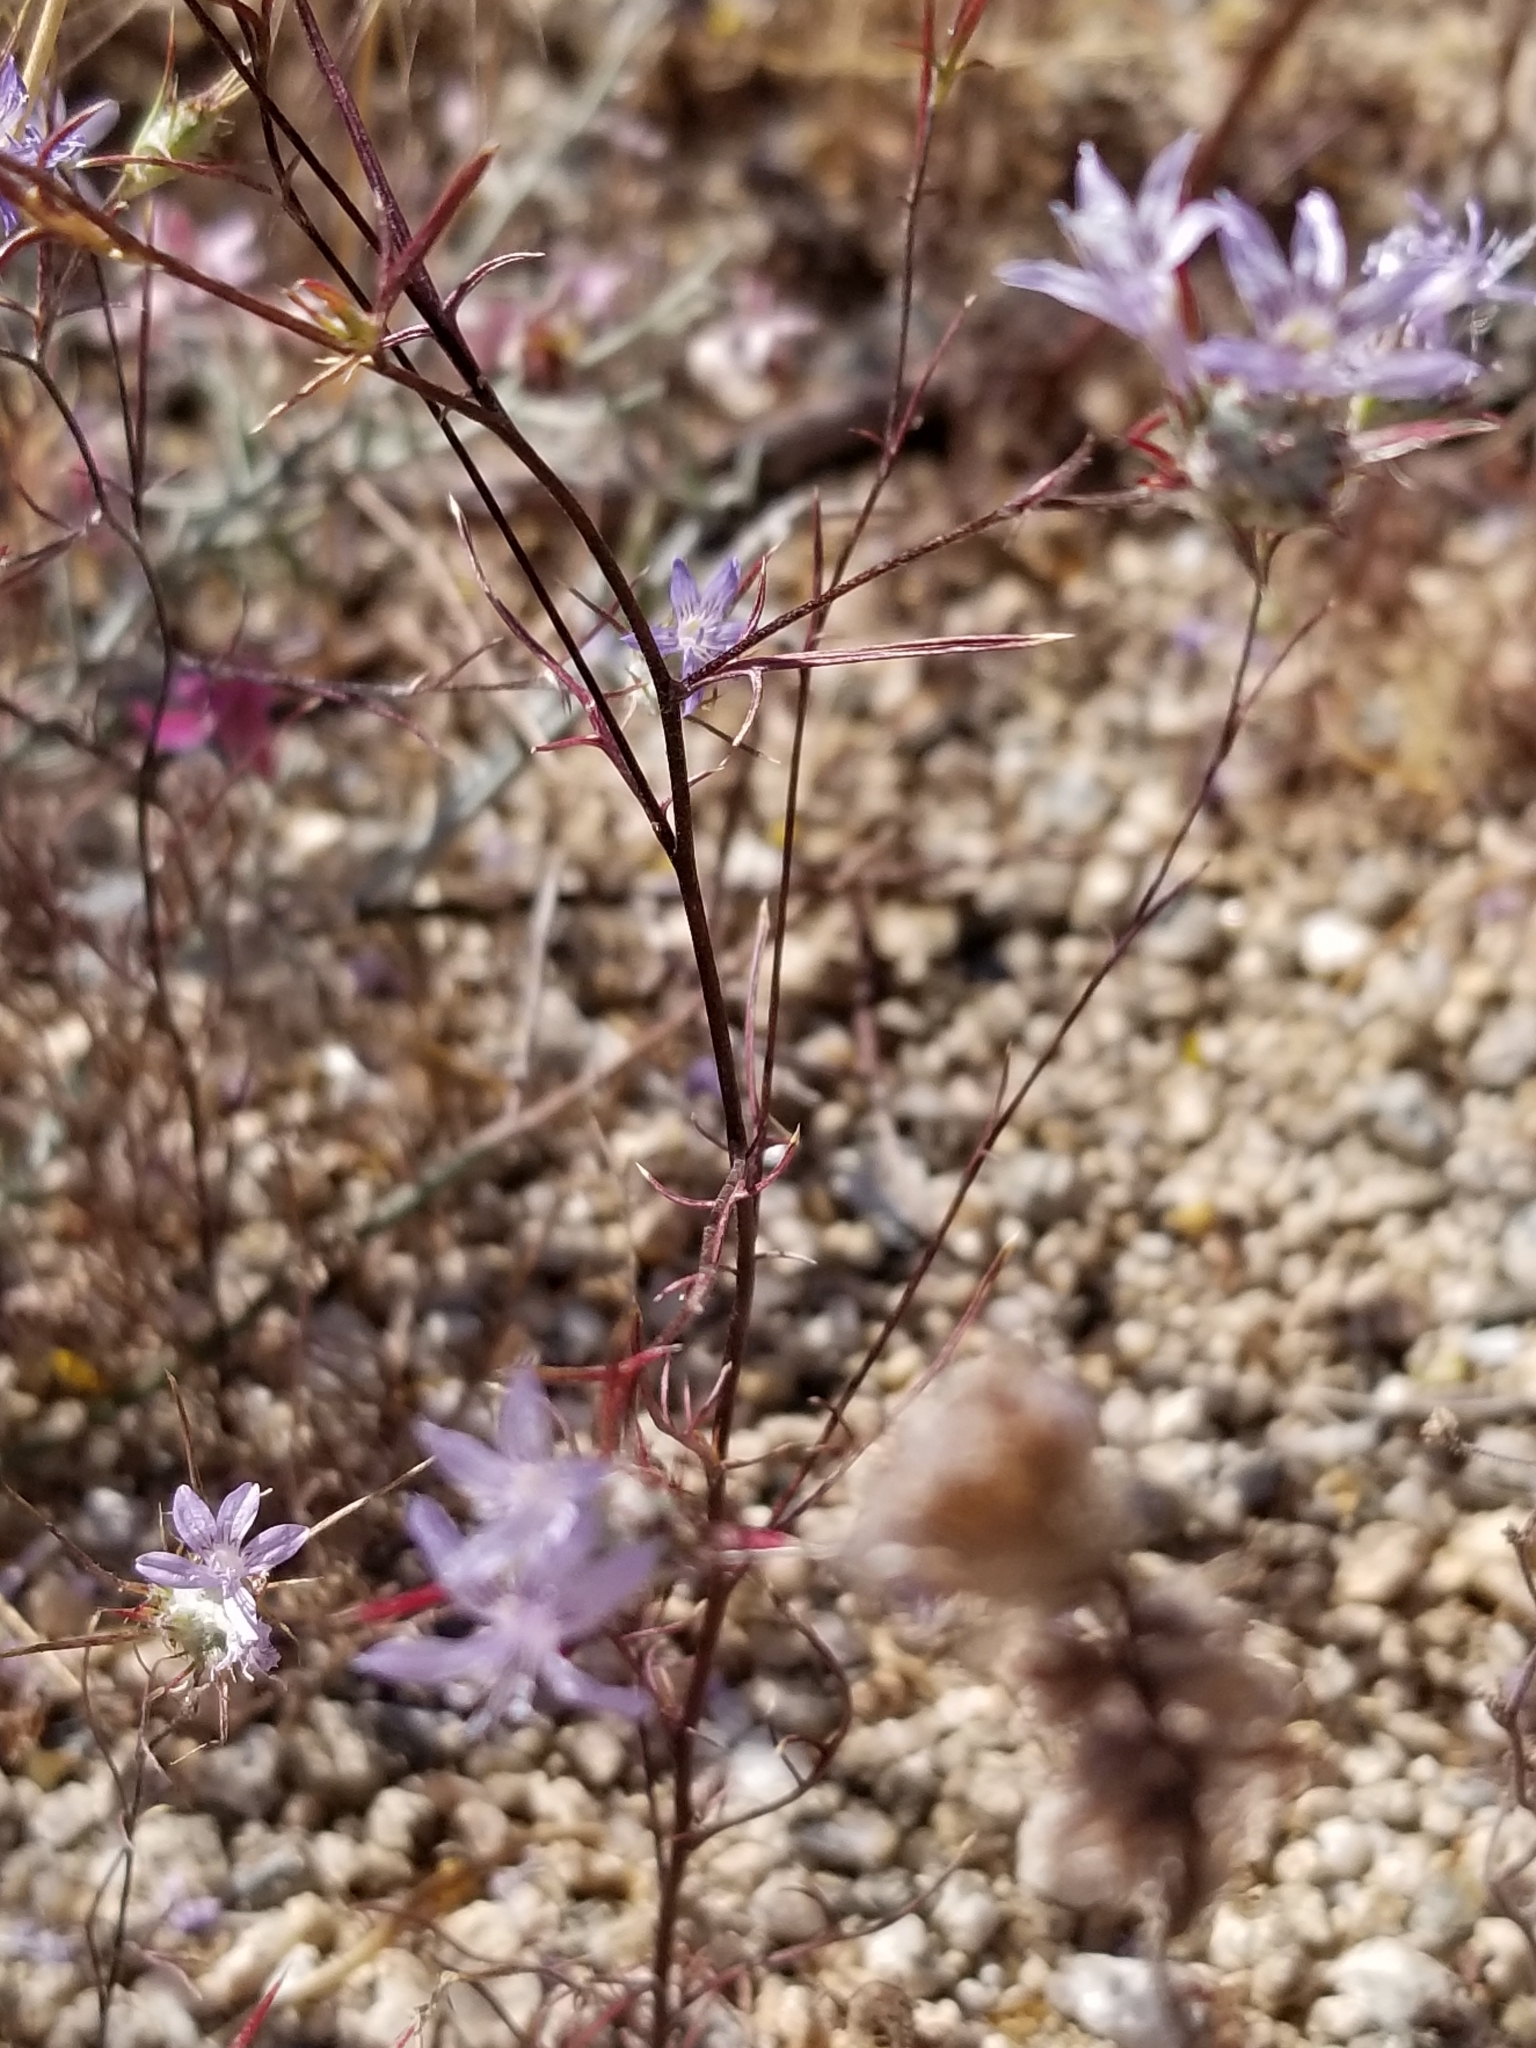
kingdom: Plantae
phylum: Tracheophyta
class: Magnoliopsida
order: Ericales
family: Polemoniaceae
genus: Eriastrum
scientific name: Eriastrum eremicum
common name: Desert eriastrum
